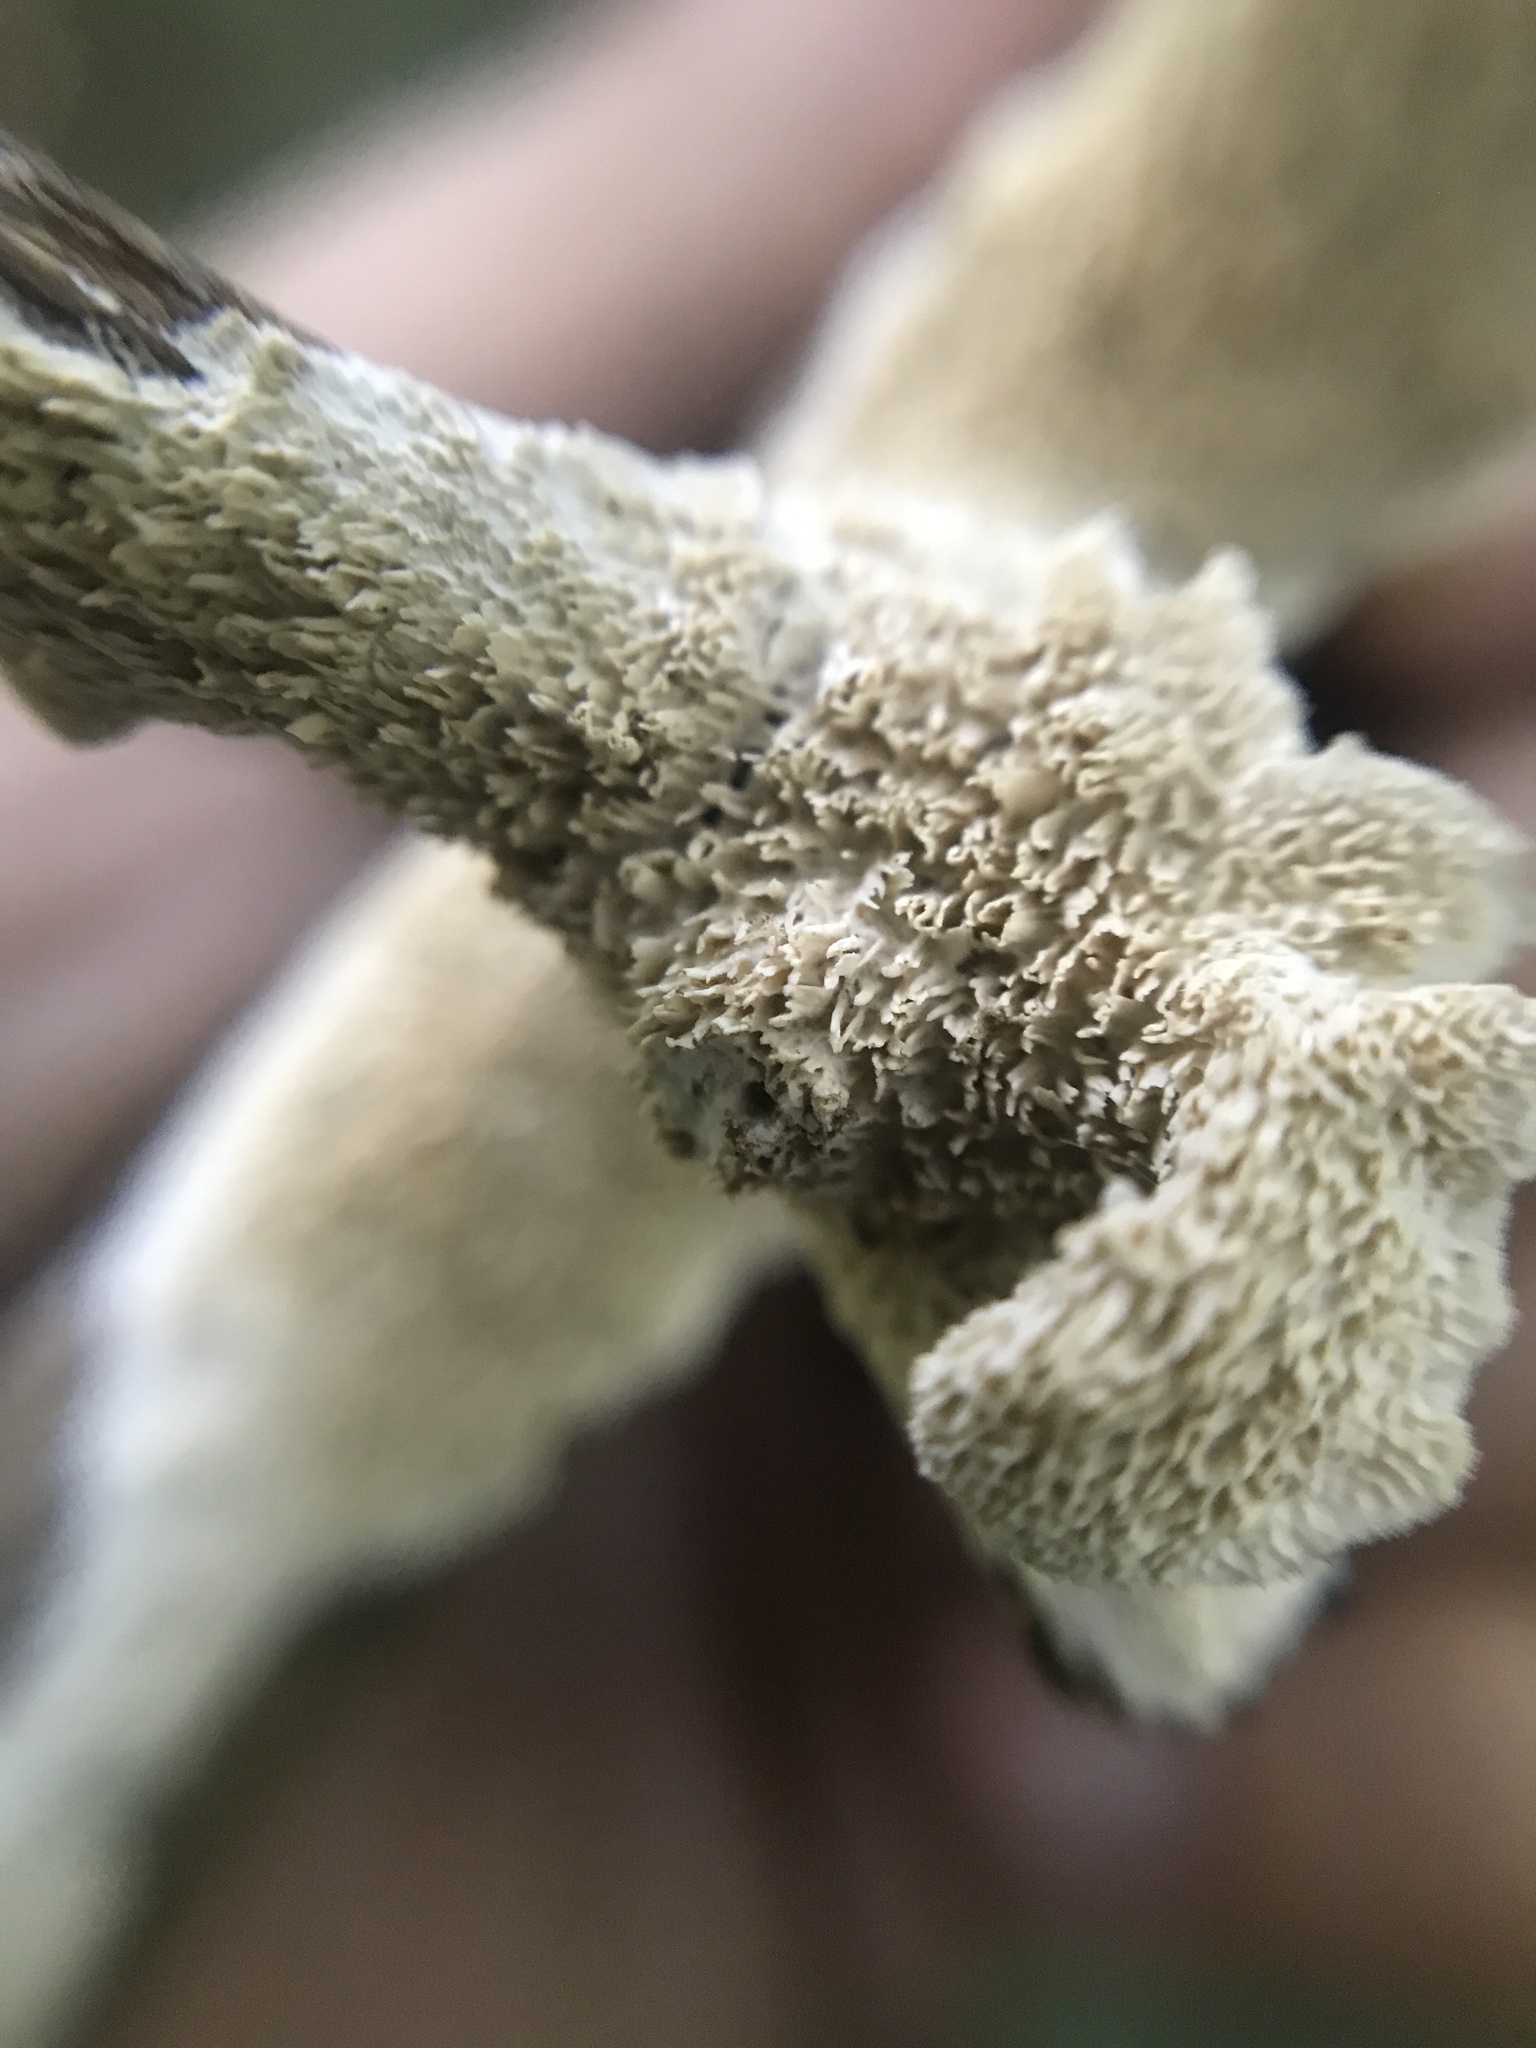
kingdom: Fungi
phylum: Basidiomycota
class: Agaricomycetes
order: Polyporales
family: Irpicaceae
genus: Irpex
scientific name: Irpex lacteus
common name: Milk-white toothed polypore
